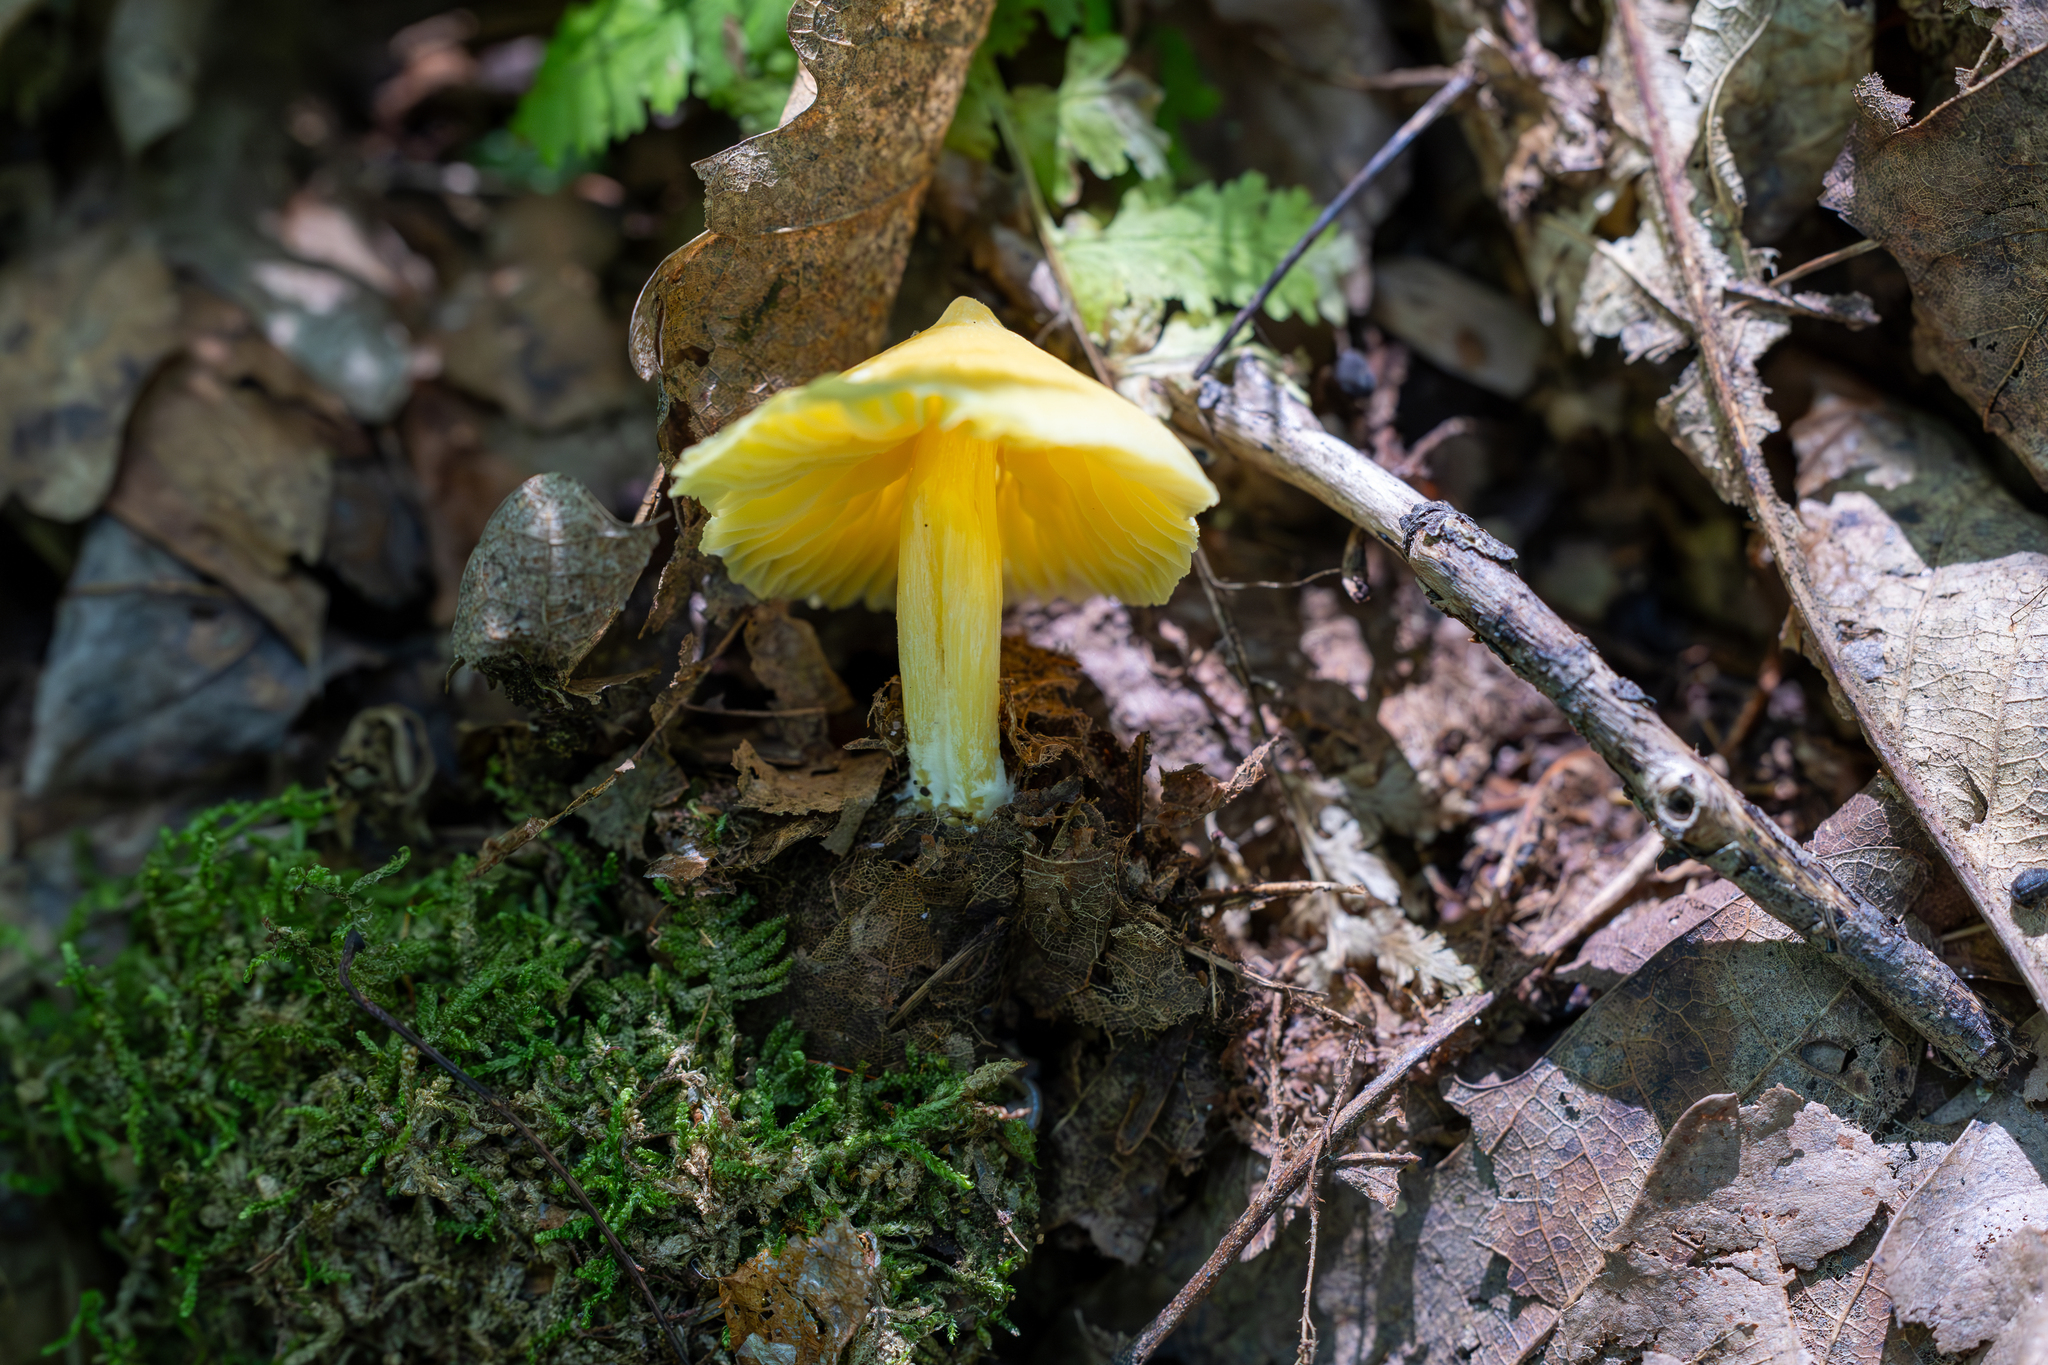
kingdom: Fungi
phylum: Basidiomycota
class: Agaricomycetes
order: Agaricales
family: Entolomataceae
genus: Entoloma
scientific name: Entoloma murrayi
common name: Yellow unicorn entoloma
